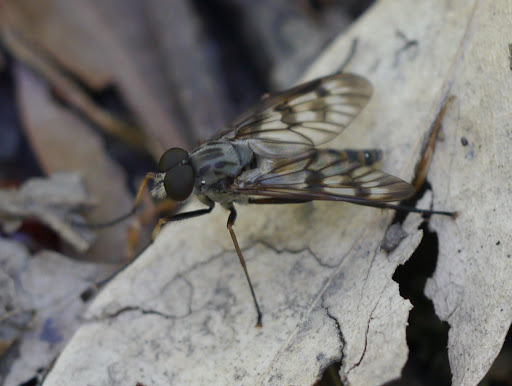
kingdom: Animalia
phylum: Arthropoda
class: Insecta
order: Diptera
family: Rhagionidae
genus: Rhagio
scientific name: Rhagio mystaceus
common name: Common snipe fly
